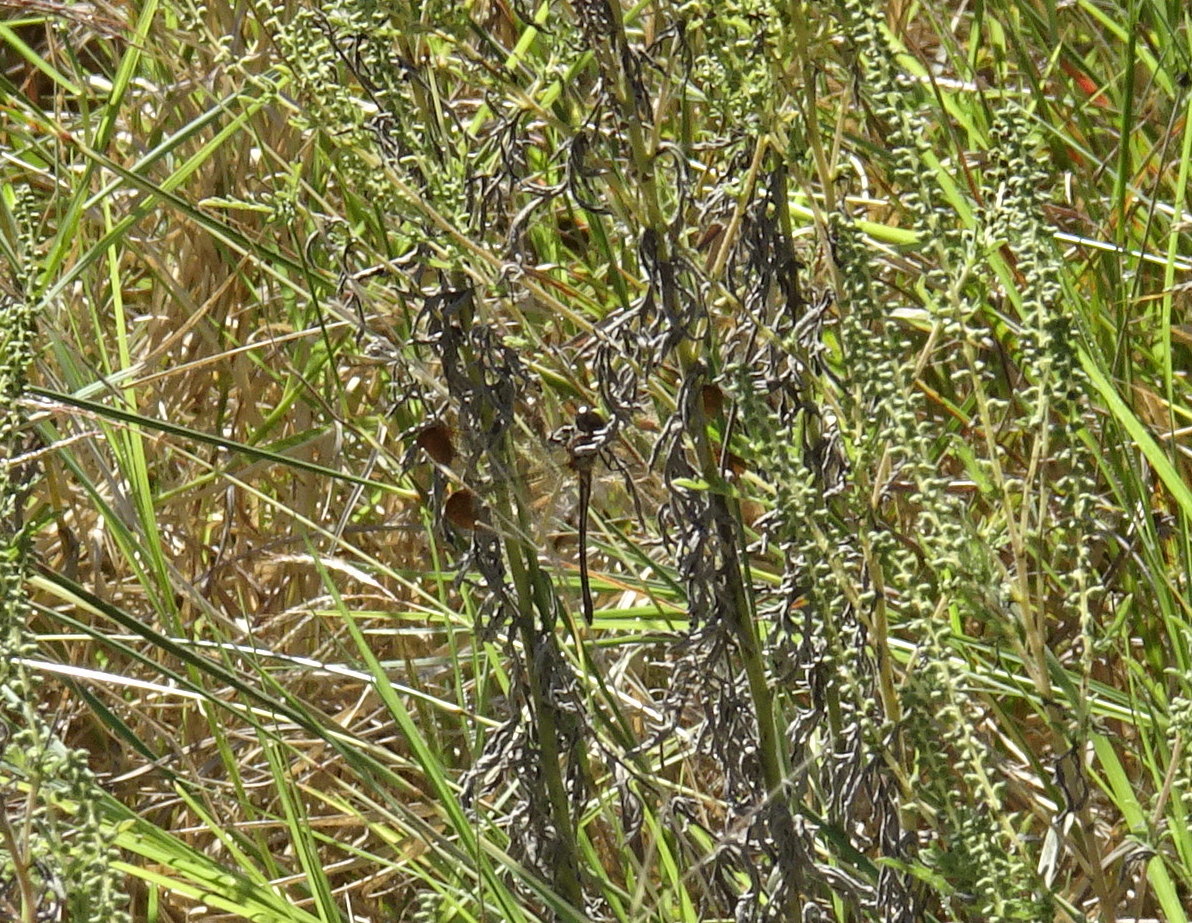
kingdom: Animalia
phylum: Arthropoda
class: Insecta
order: Odonata
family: Libellulidae
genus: Macrothemis
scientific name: Macrothemis inequiunguis
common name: Jade-striped sylph
